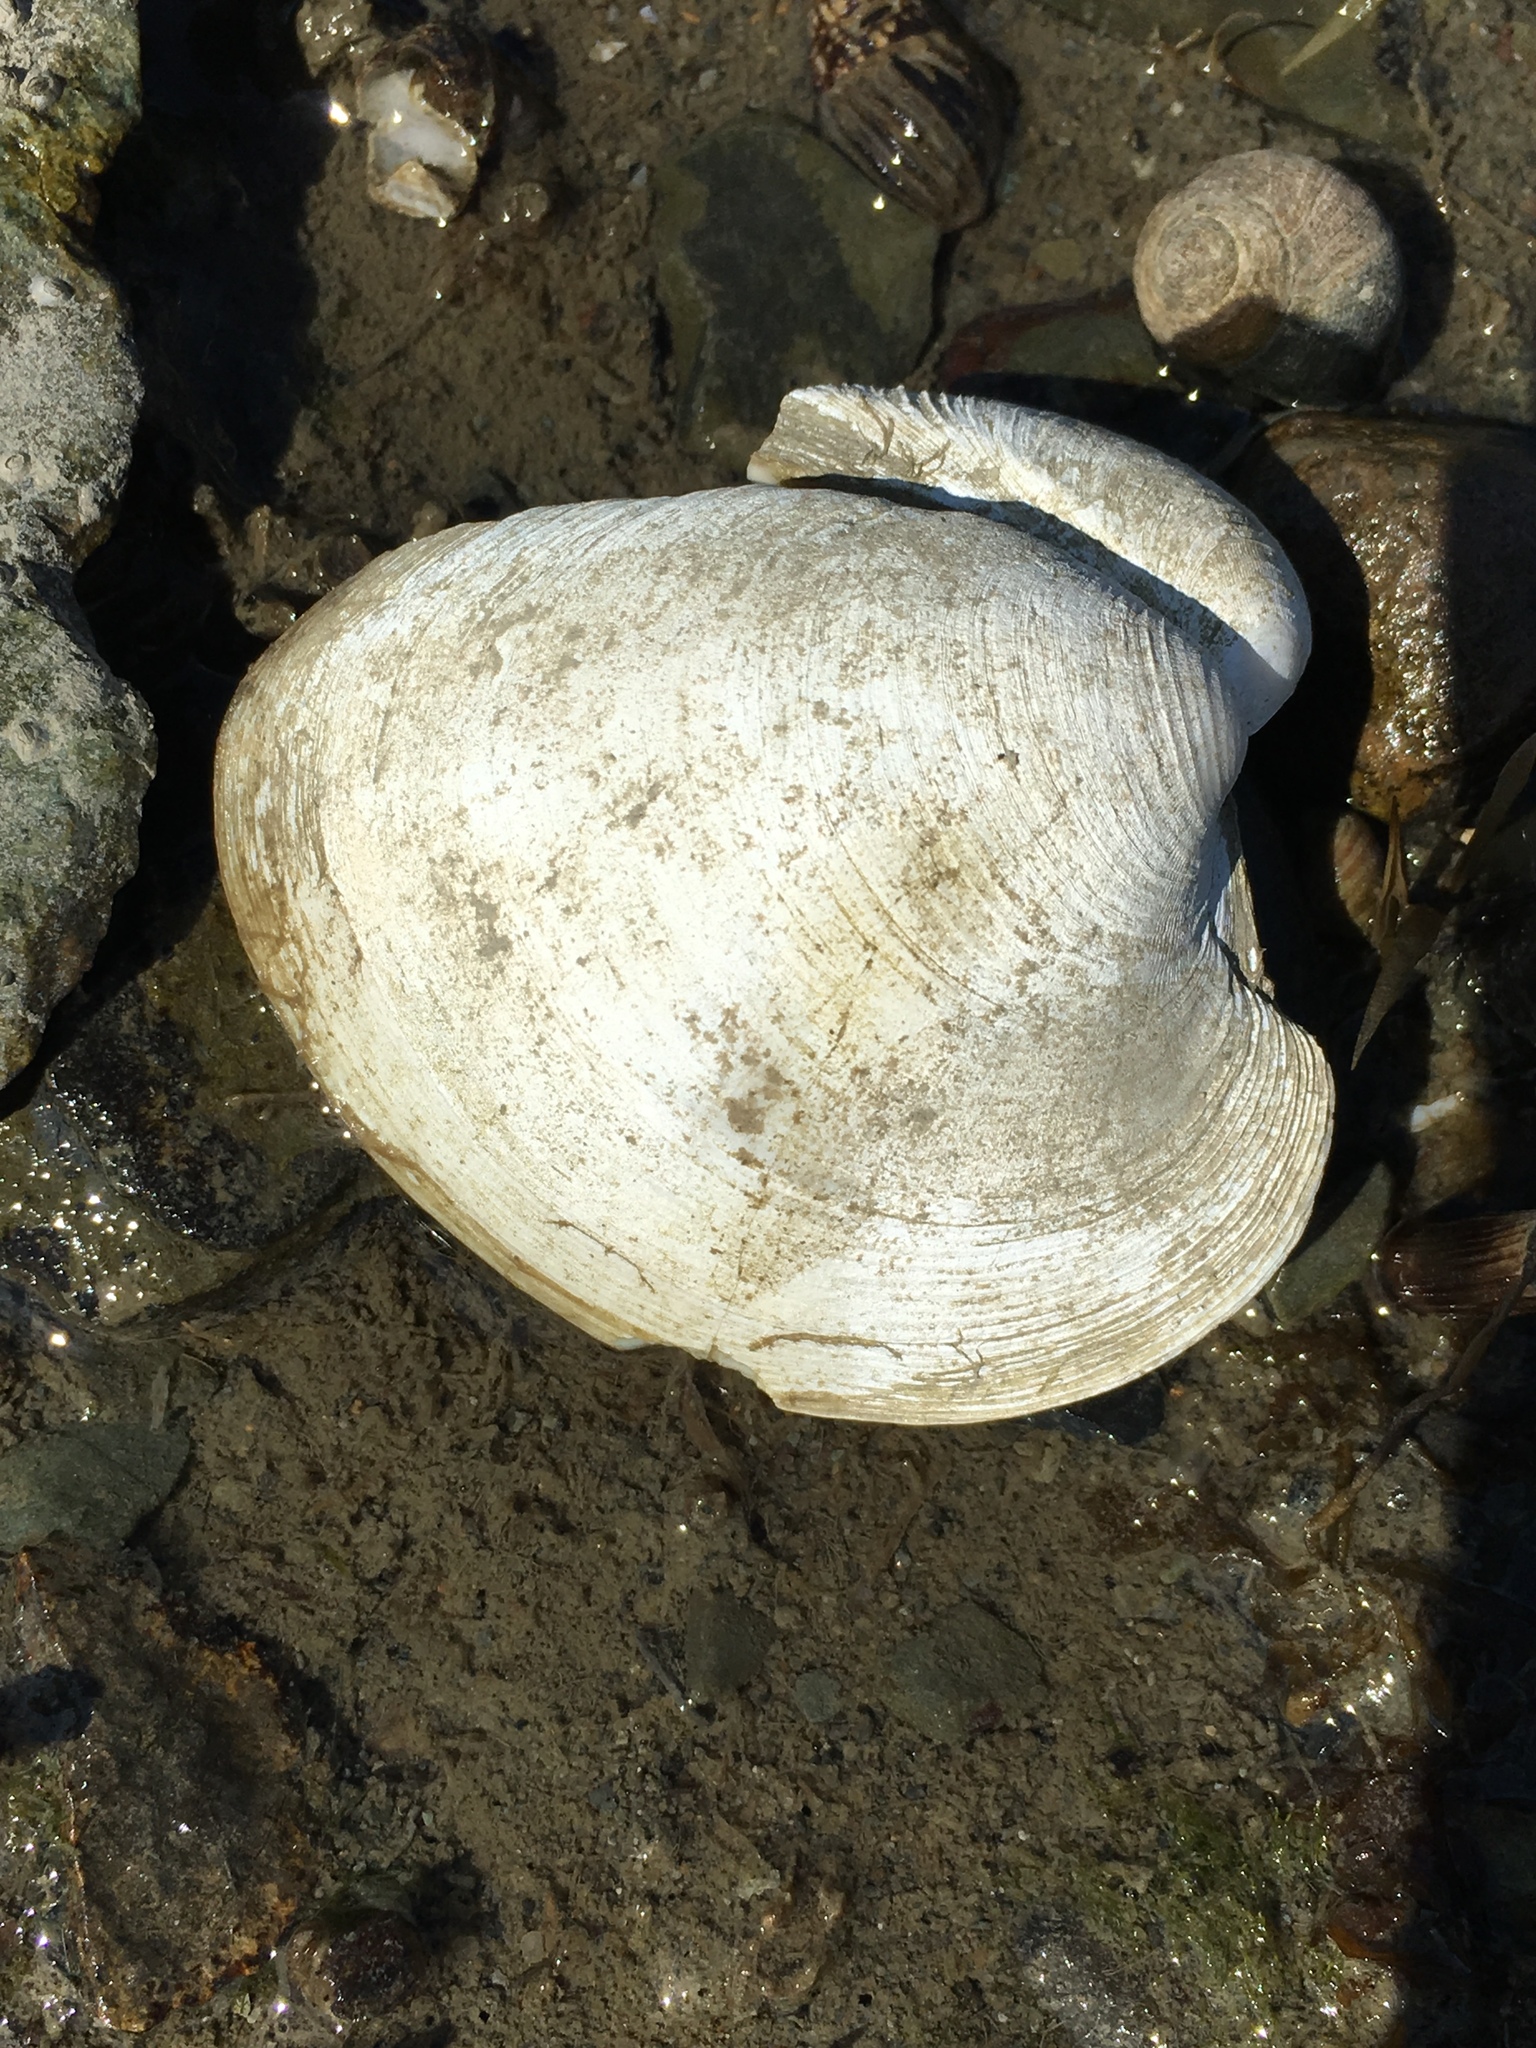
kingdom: Animalia
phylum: Mollusca
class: Bivalvia
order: Venerida
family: Veneridae
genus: Mercenaria
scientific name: Mercenaria mercenaria
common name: American hard-shelled clam
